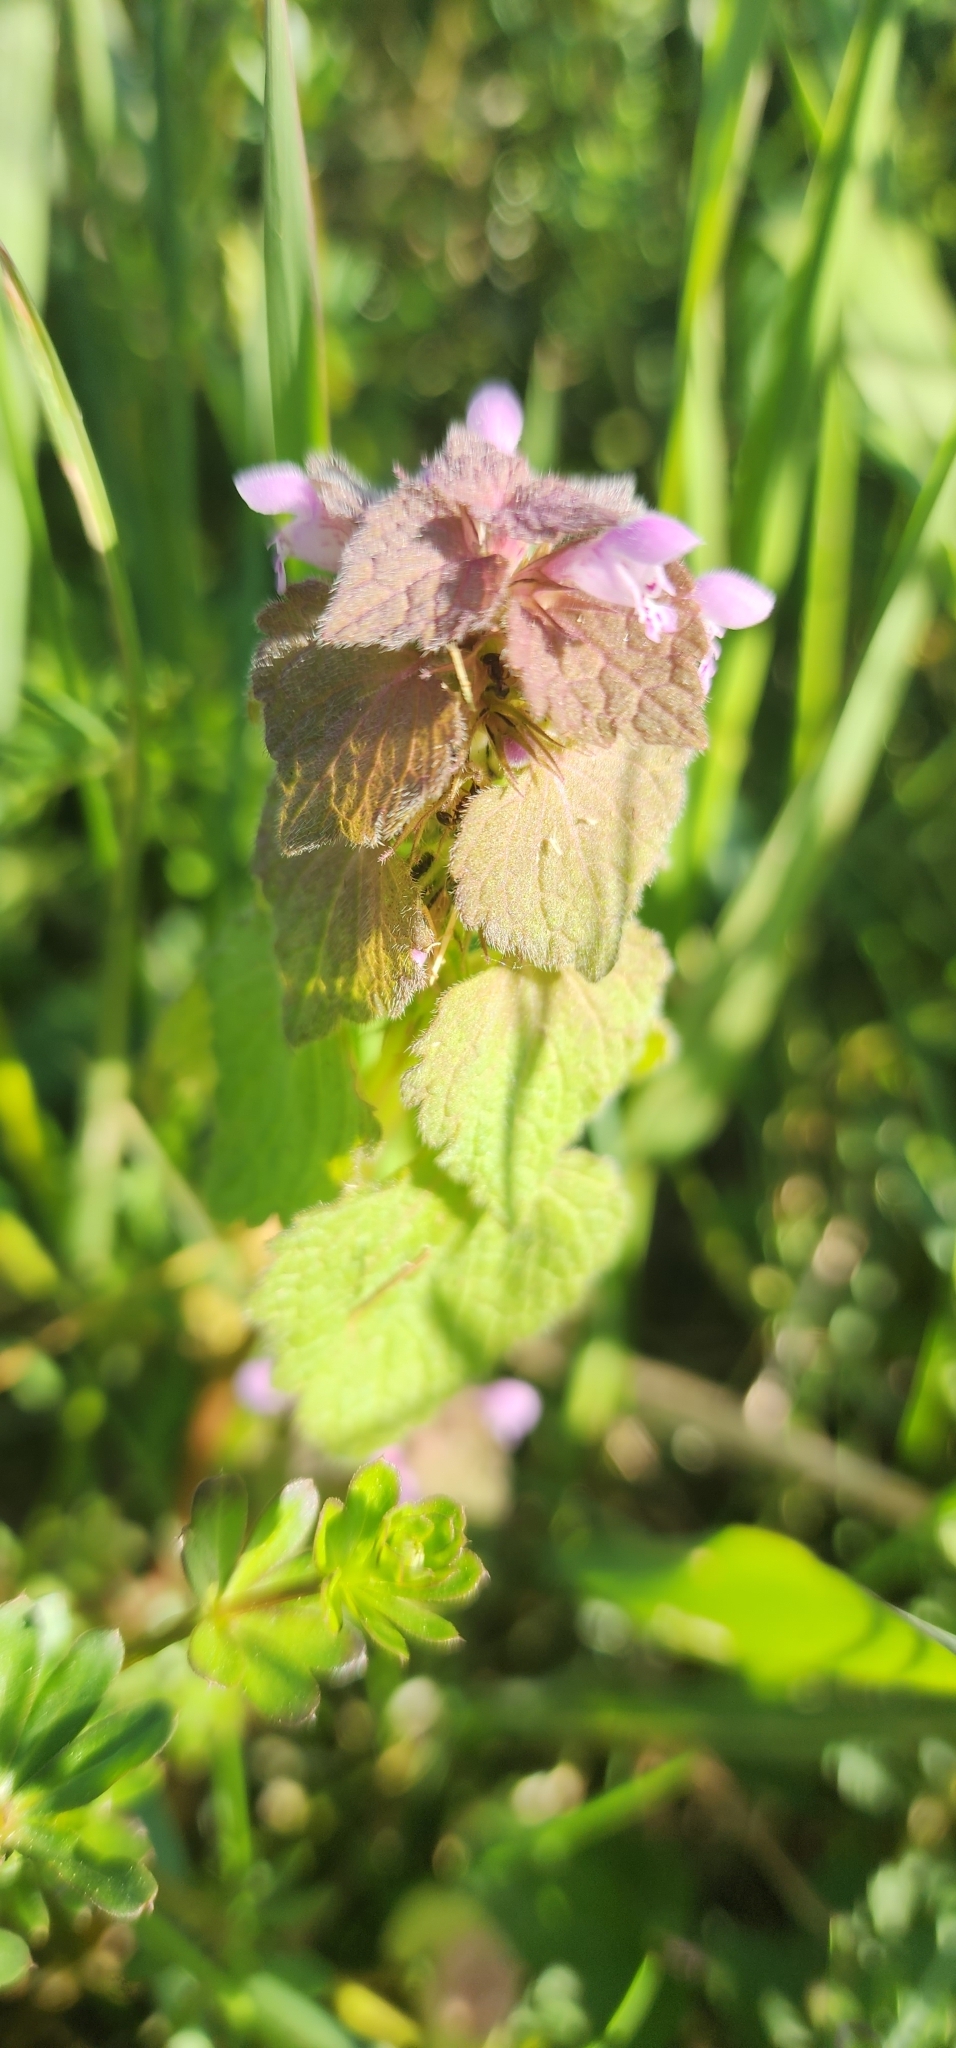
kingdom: Plantae
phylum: Tracheophyta
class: Magnoliopsida
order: Lamiales
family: Lamiaceae
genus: Lamium
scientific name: Lamium purpureum
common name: Red dead-nettle
